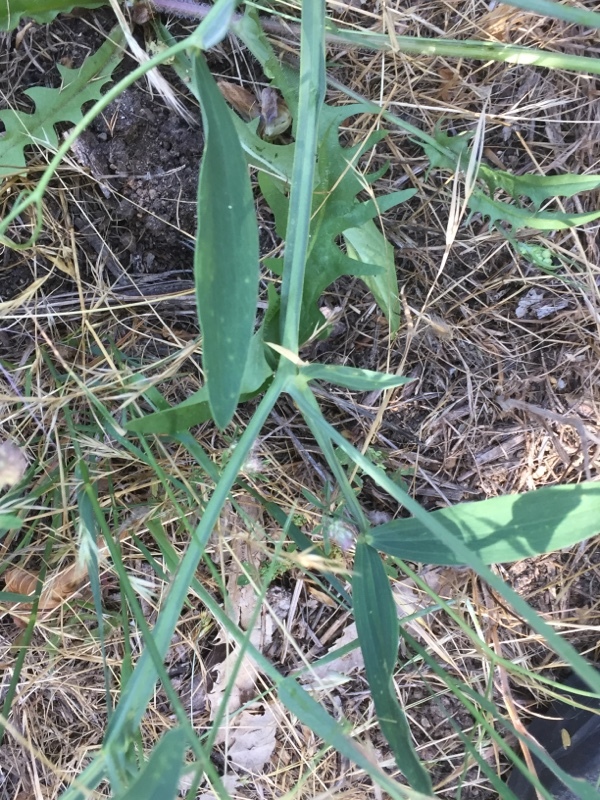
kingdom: Plantae
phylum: Tracheophyta
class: Magnoliopsida
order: Fabales
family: Fabaceae
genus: Lathyrus
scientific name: Lathyrus latifolius
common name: Perennial pea
